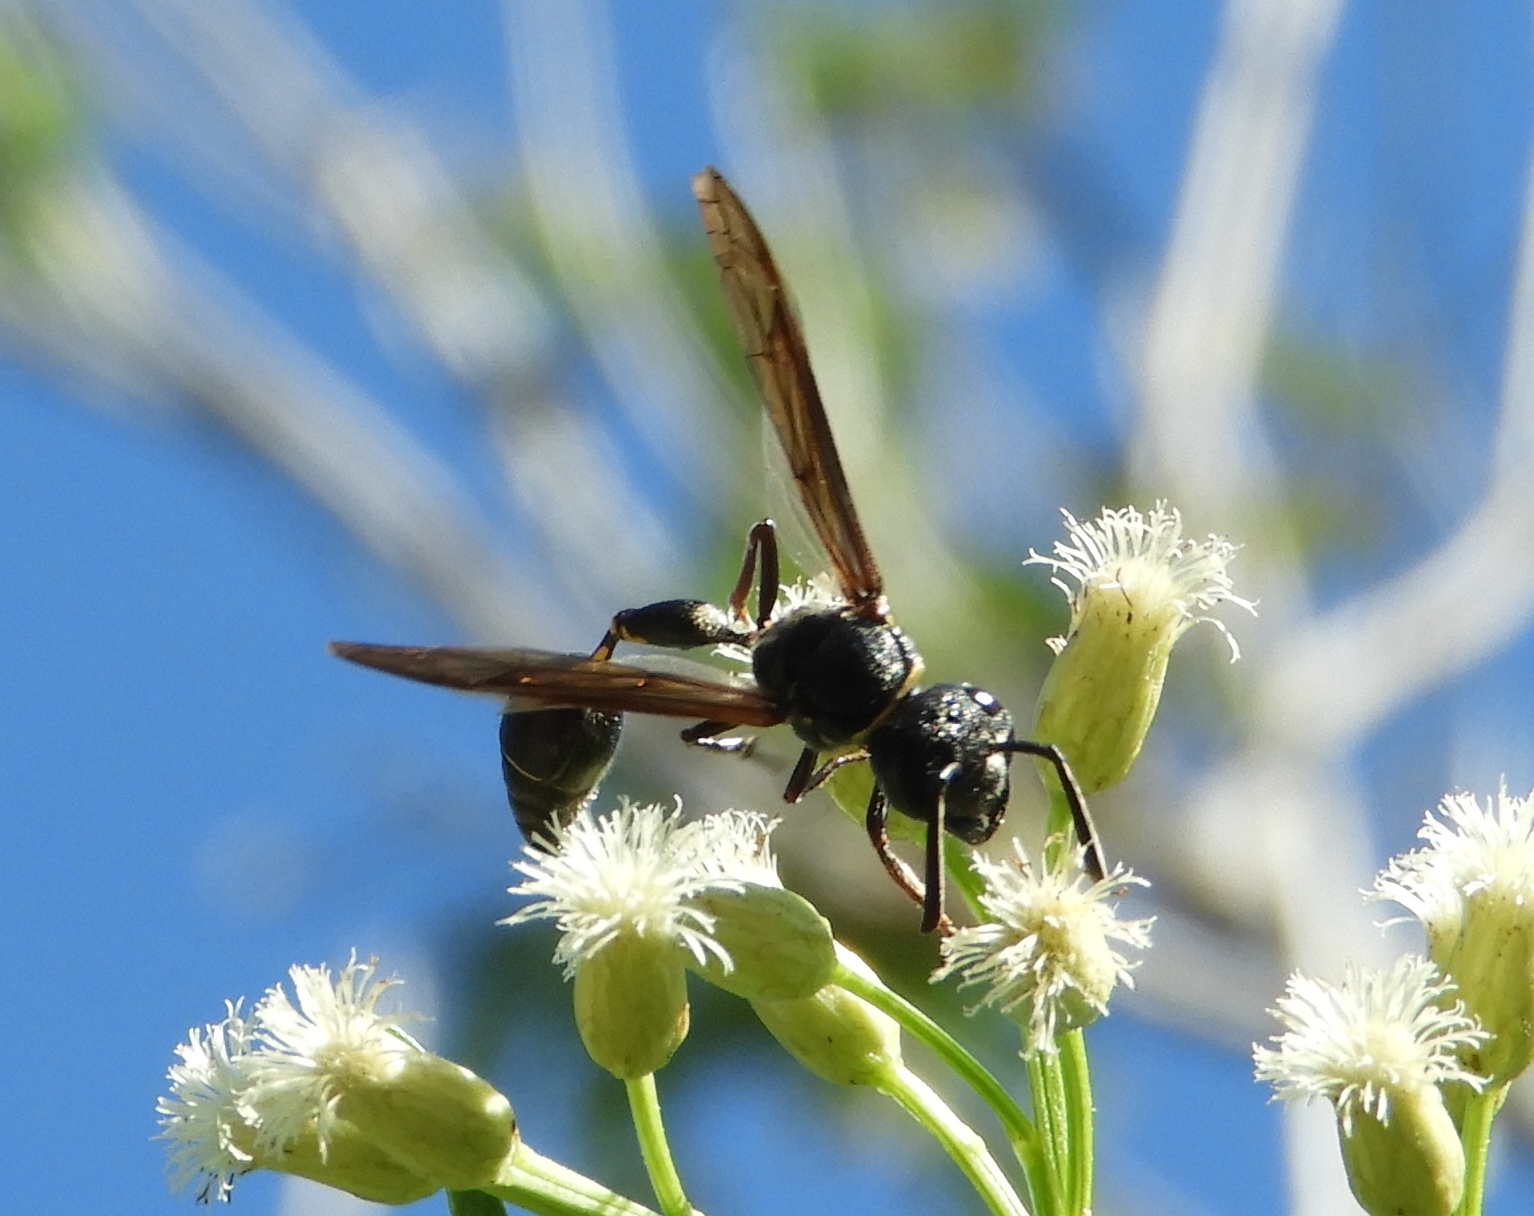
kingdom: Animalia
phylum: Arthropoda
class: Insecta
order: Hymenoptera
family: Vespidae
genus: Myrapetra
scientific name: Myrapetra
